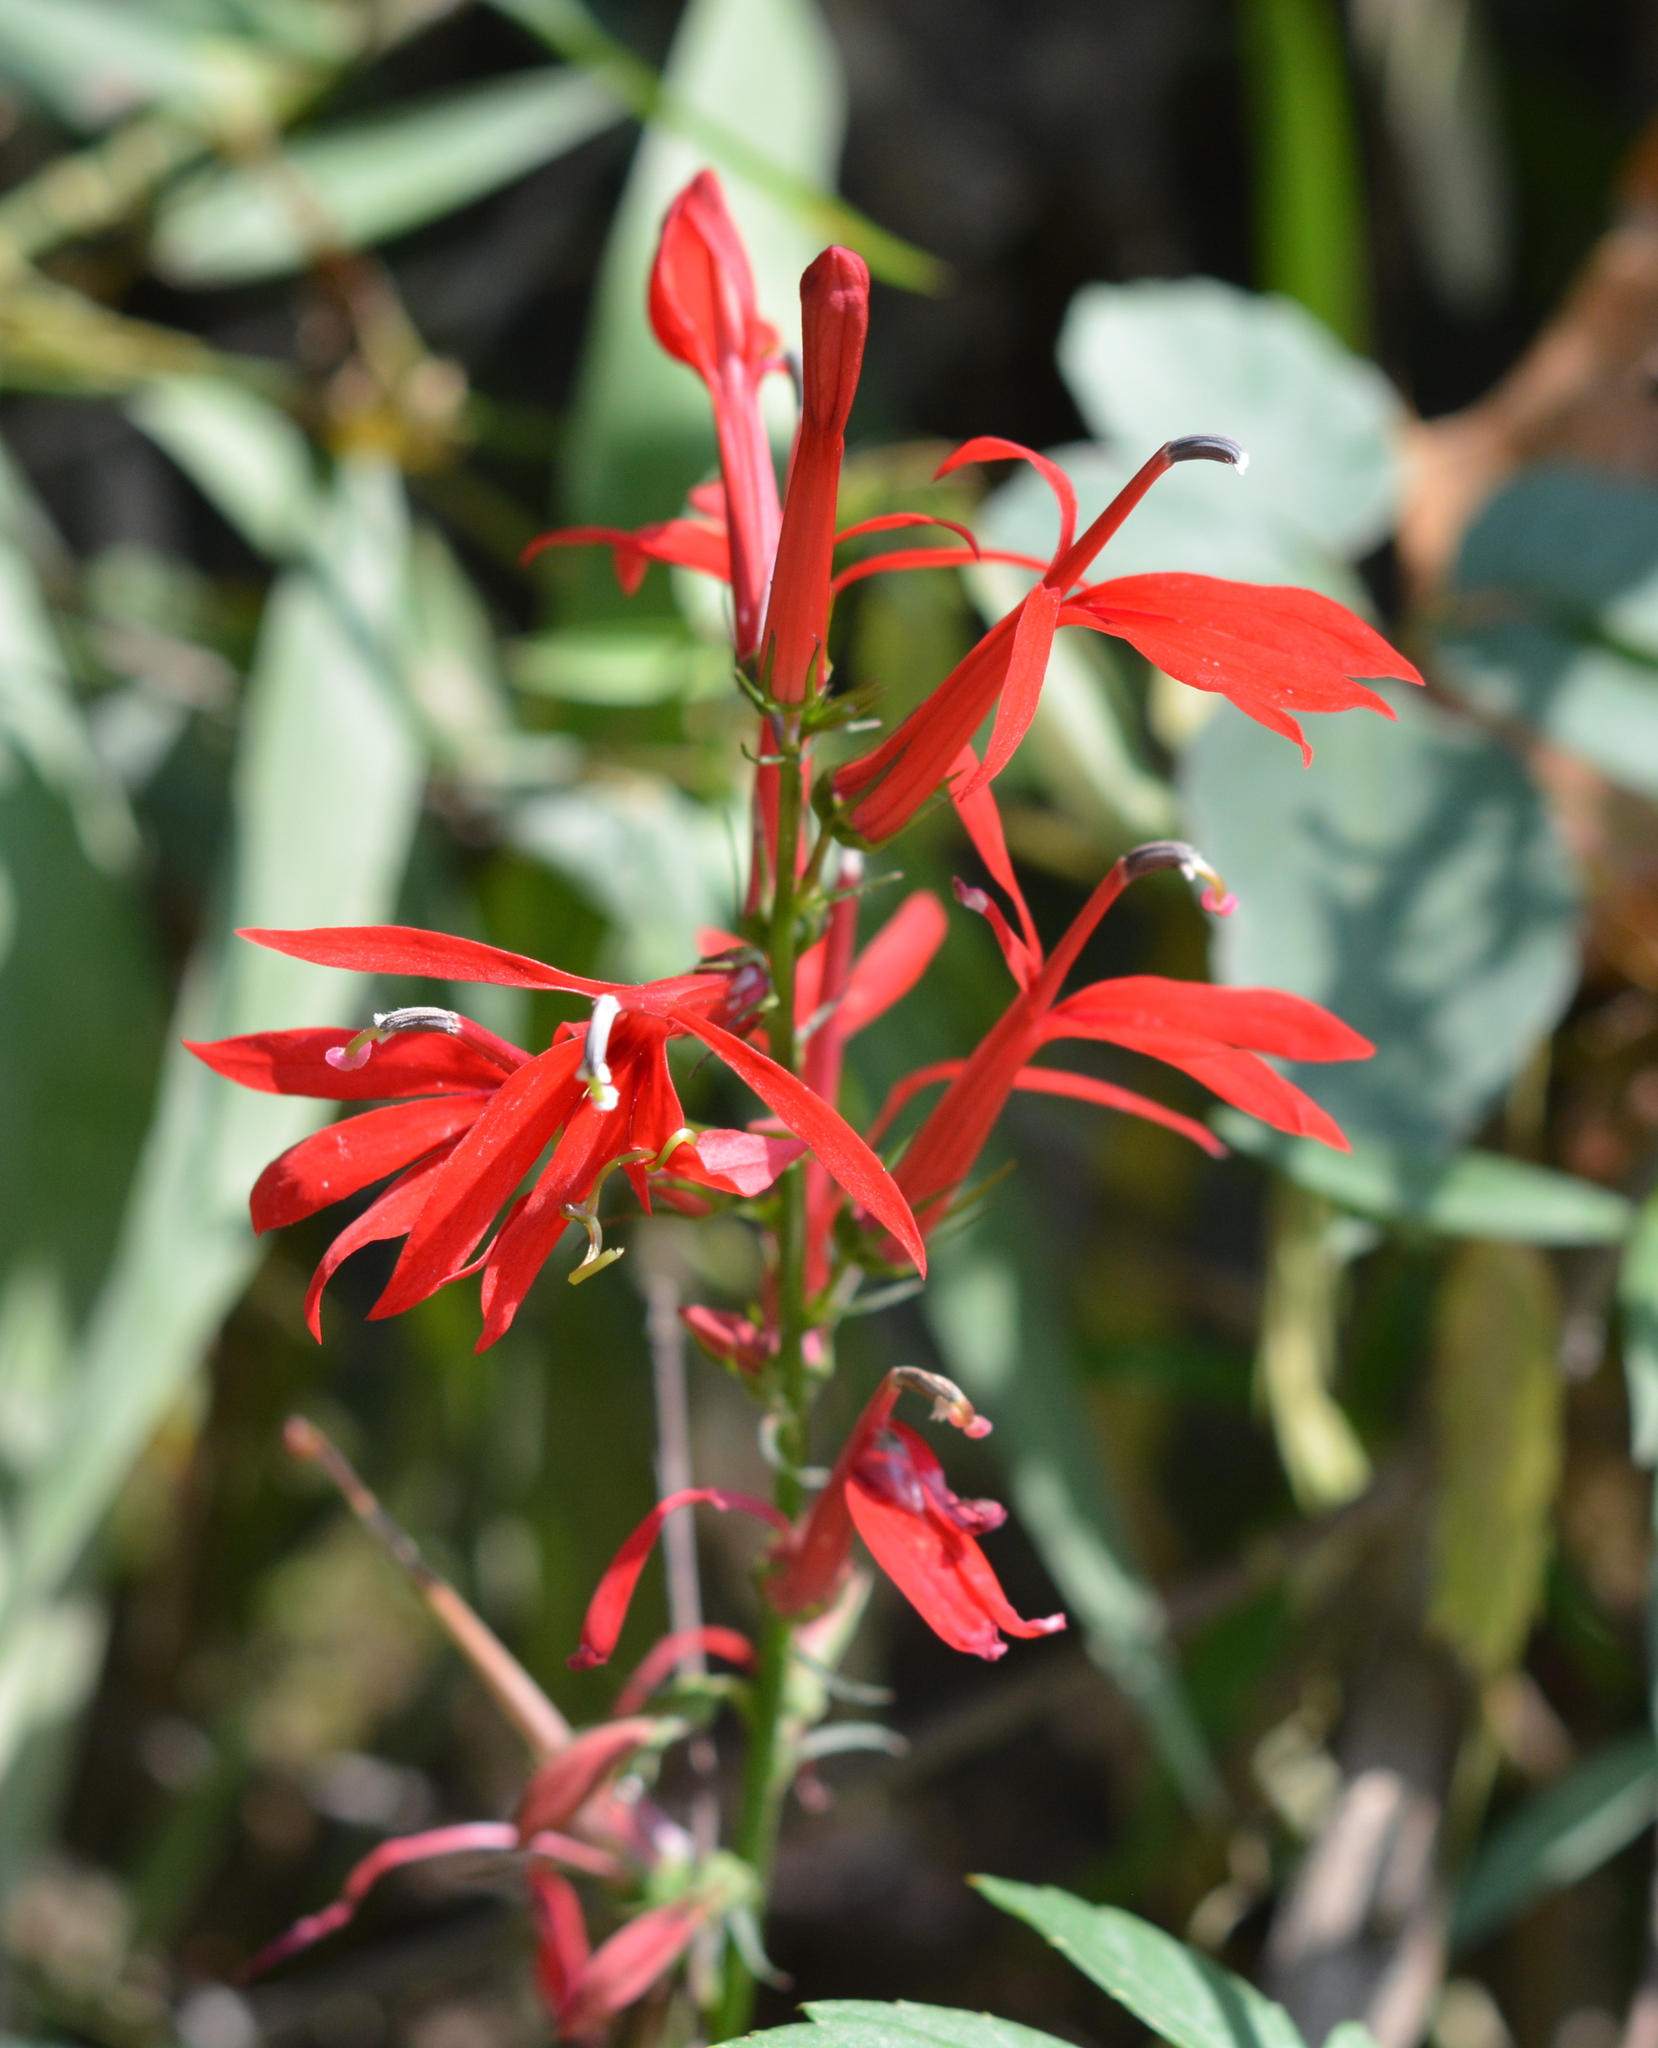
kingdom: Plantae
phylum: Tracheophyta
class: Magnoliopsida
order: Asterales
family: Campanulaceae
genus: Lobelia
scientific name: Lobelia cardinalis
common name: Cardinal flower
